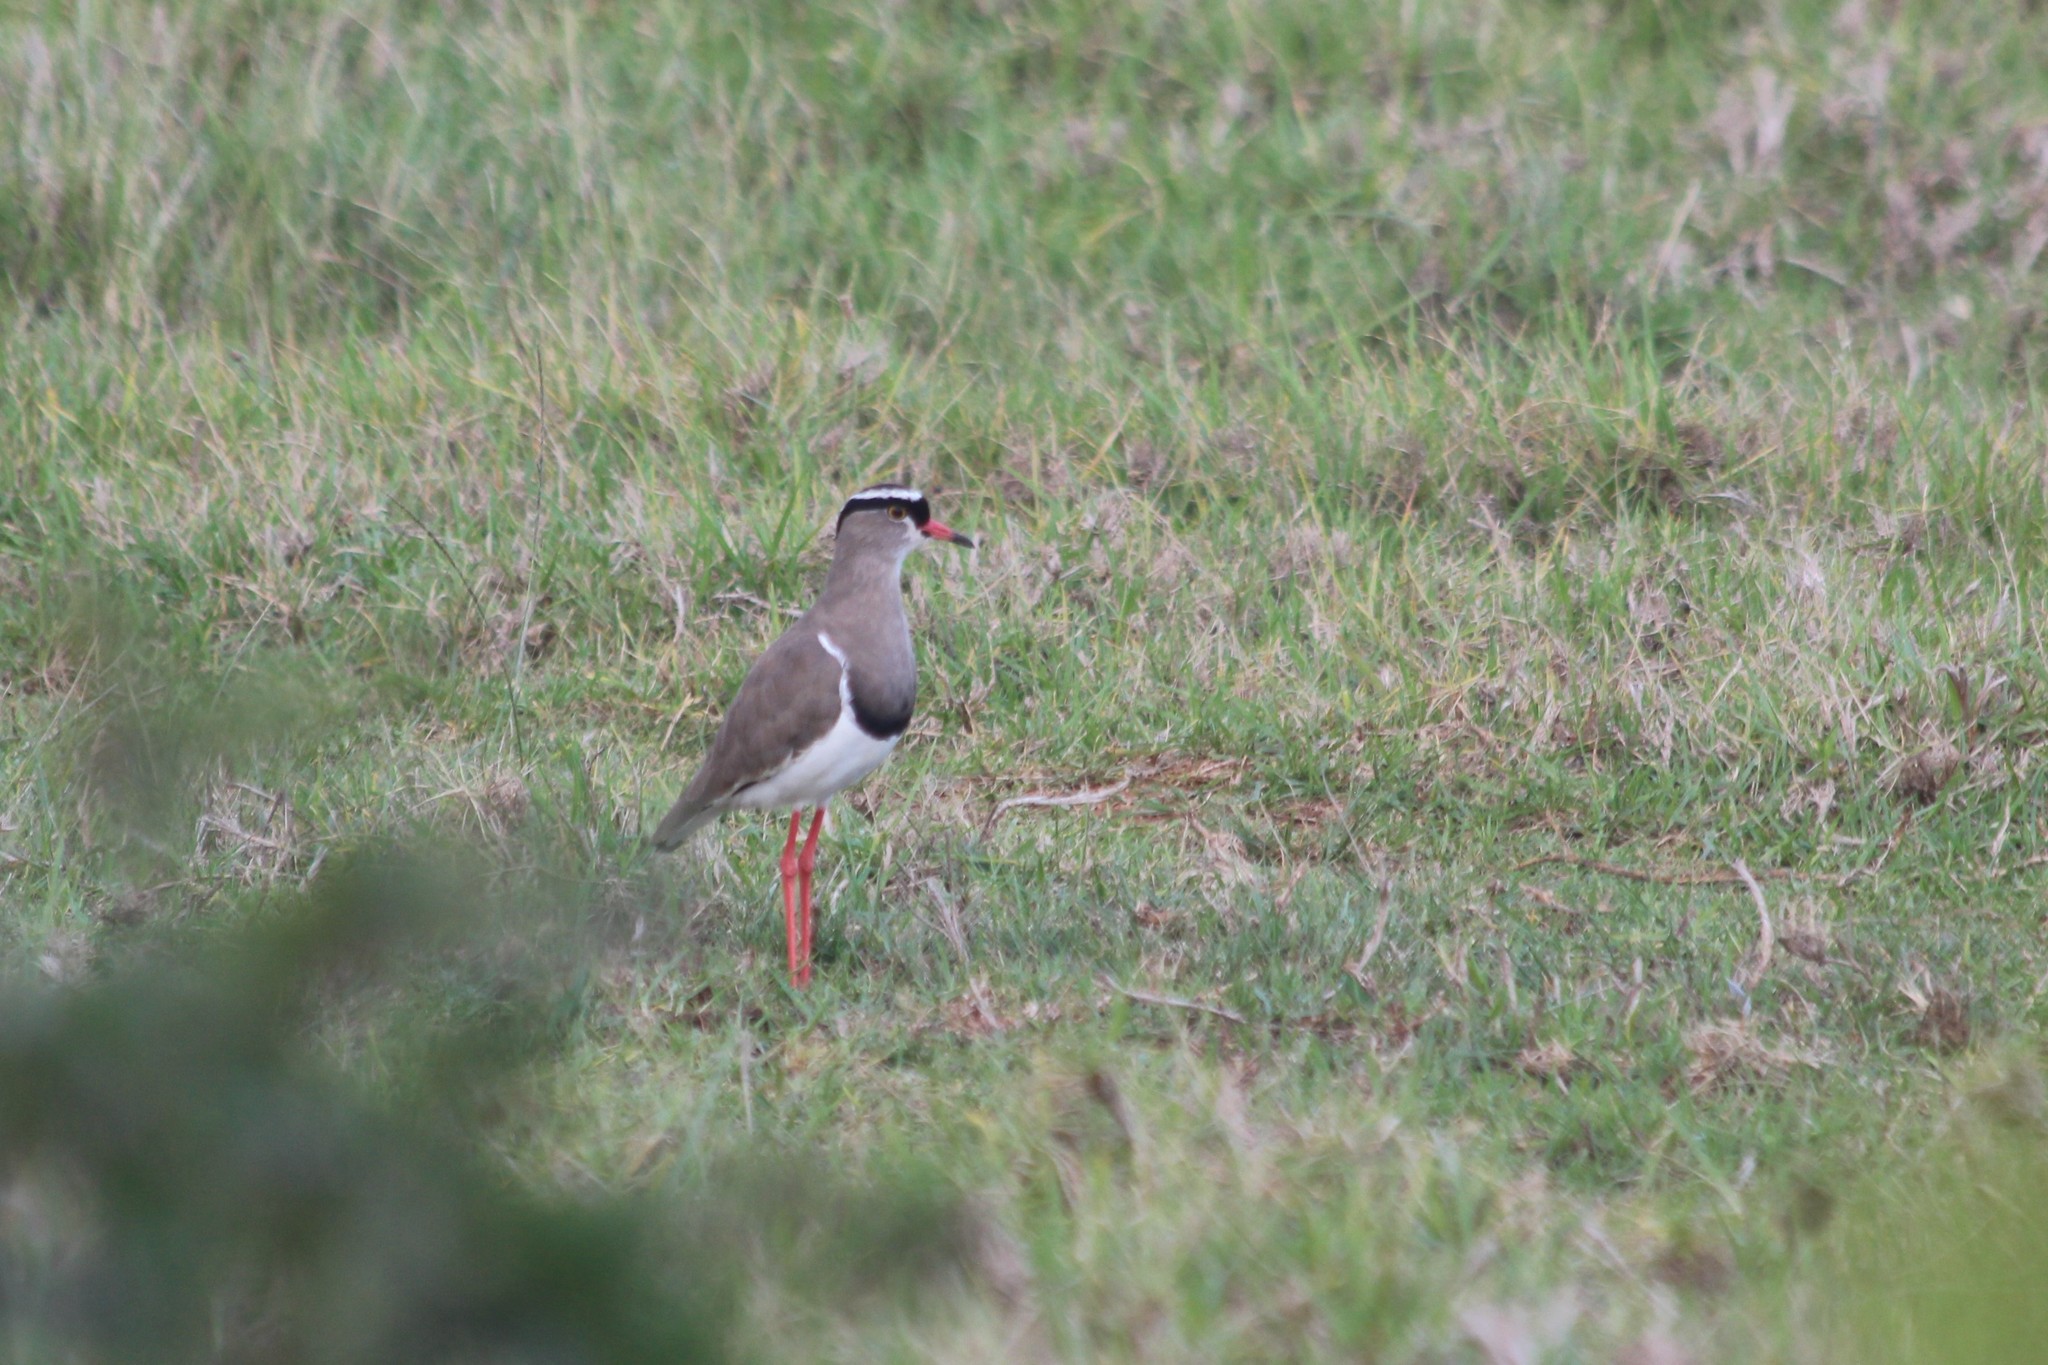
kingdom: Animalia
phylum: Chordata
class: Aves
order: Charadriiformes
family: Charadriidae
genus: Vanellus
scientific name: Vanellus coronatus
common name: Crowned lapwing
